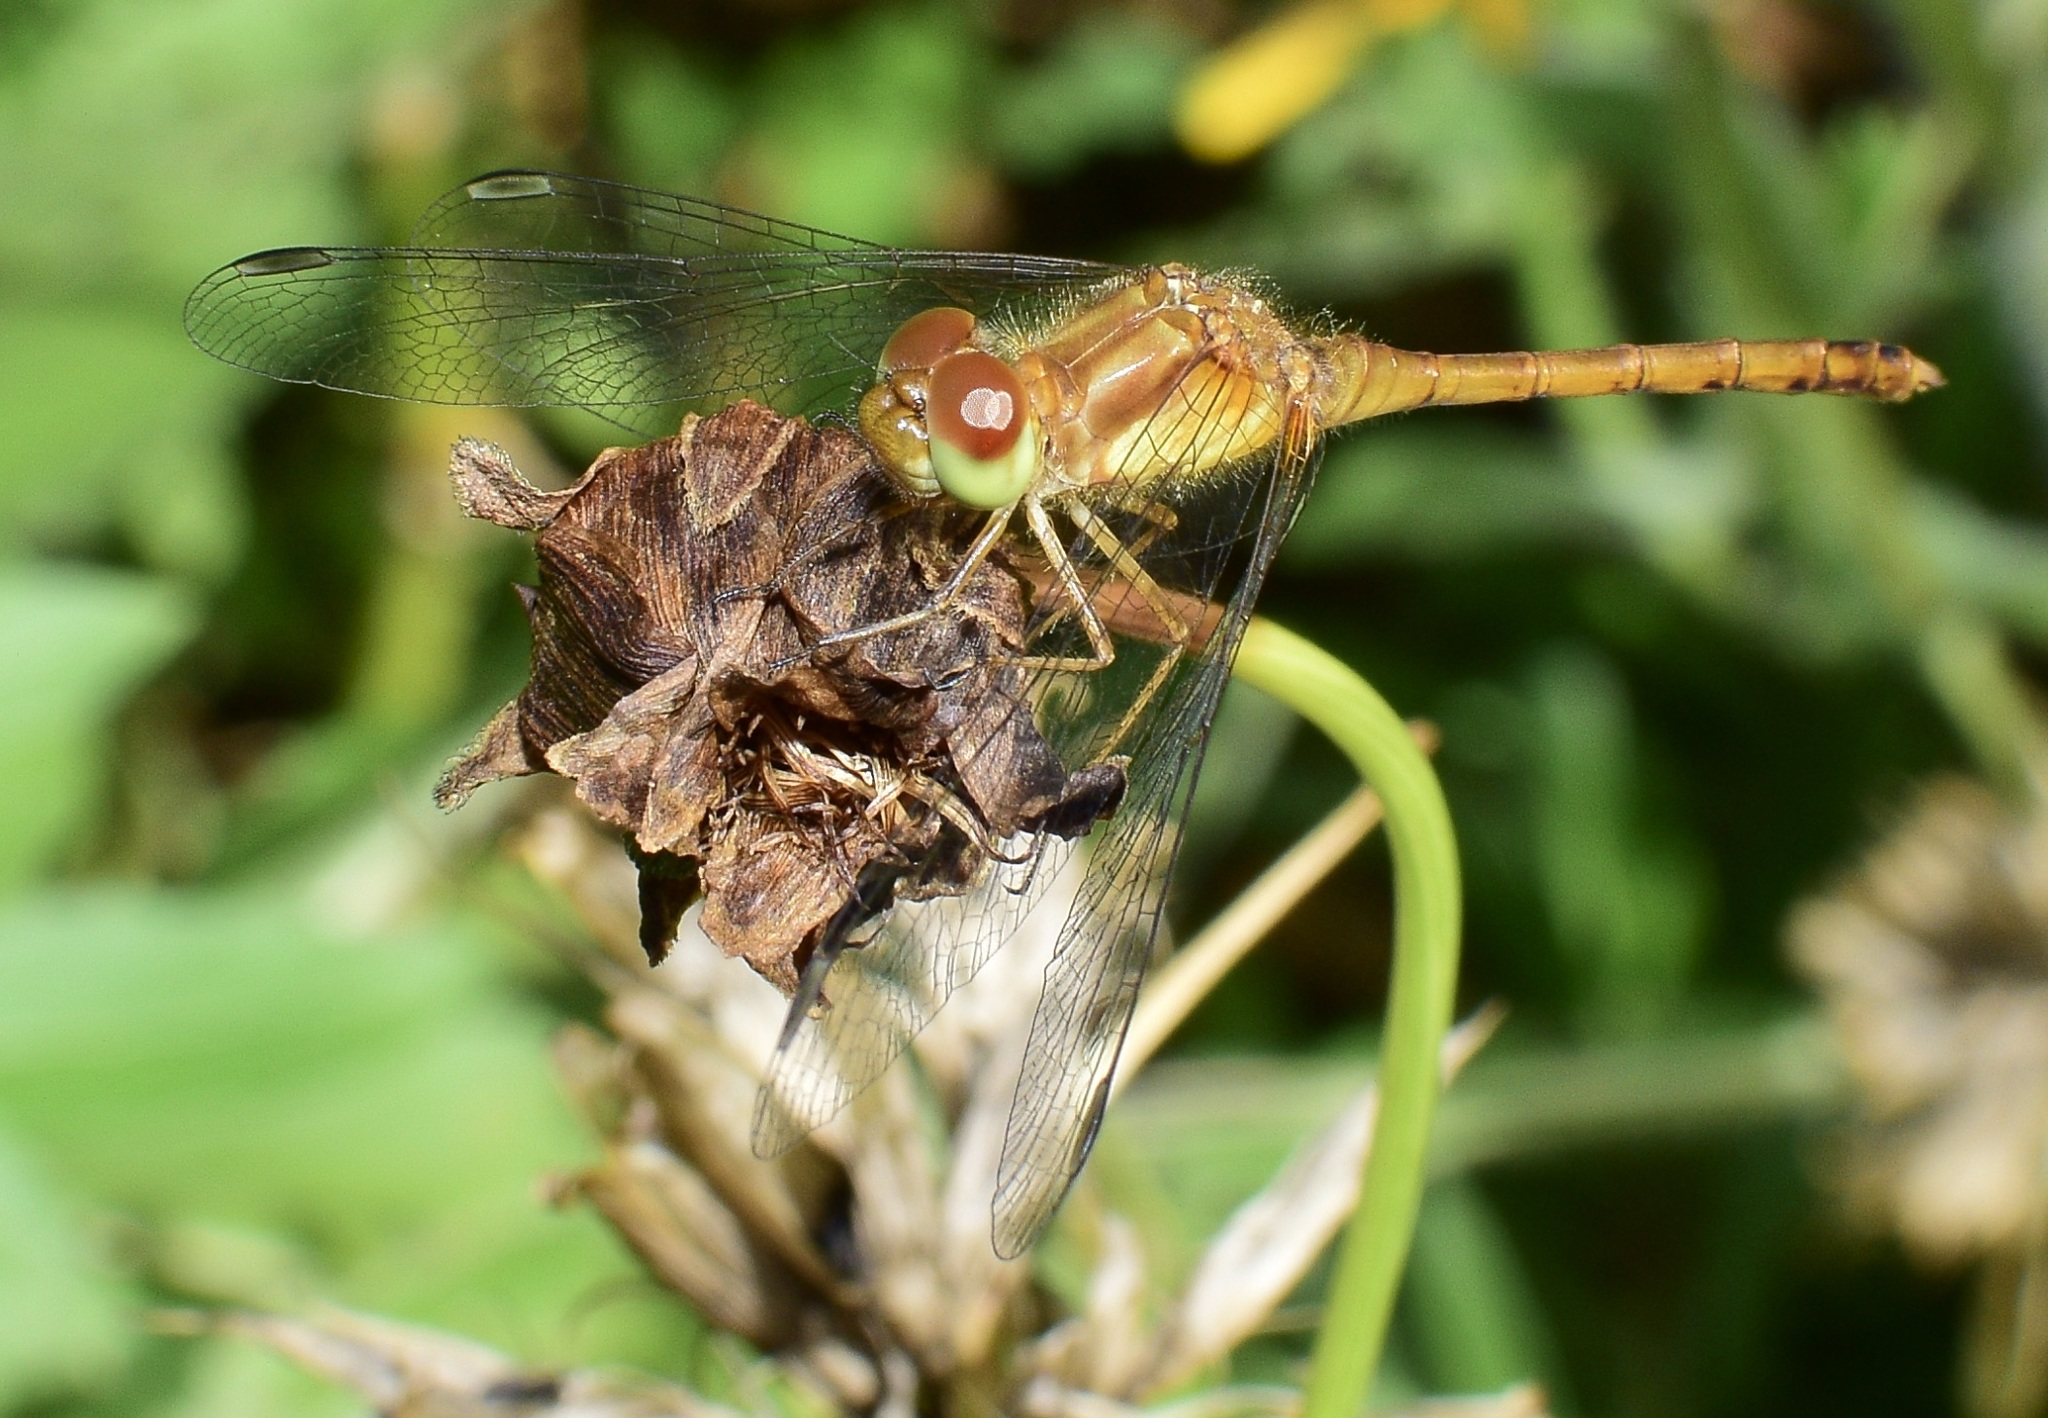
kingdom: Animalia
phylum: Arthropoda
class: Insecta
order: Odonata
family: Libellulidae
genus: Sympetrum
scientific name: Sympetrum vicinum
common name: Autumn meadowhawk
